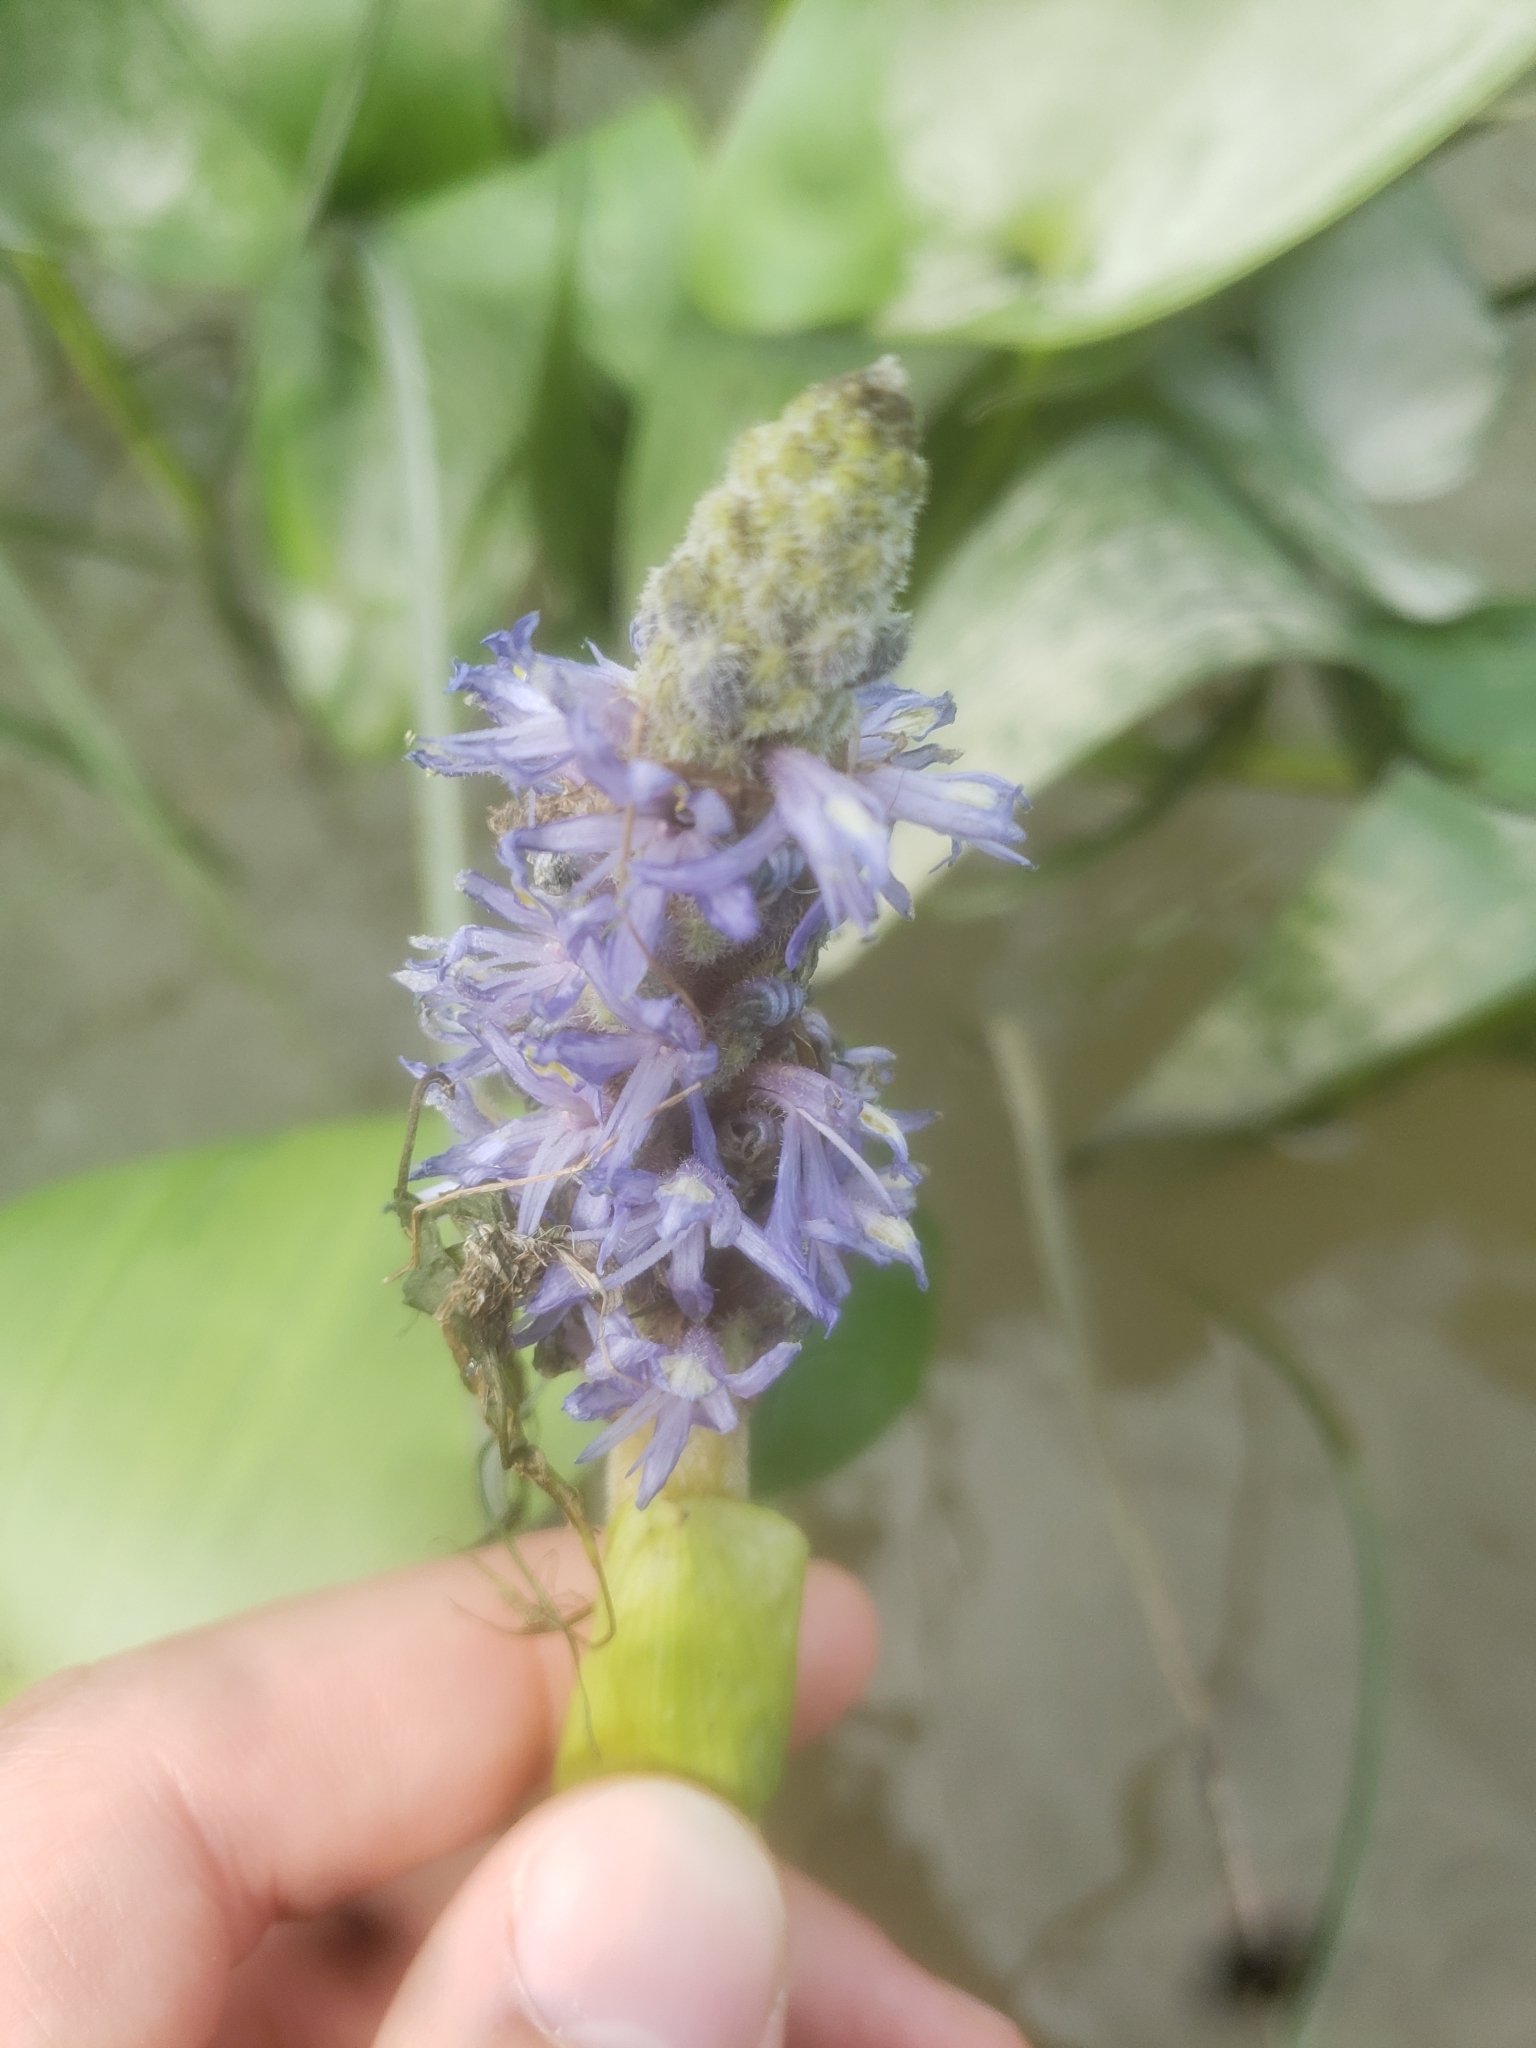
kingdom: Plantae
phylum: Tracheophyta
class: Liliopsida
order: Commelinales
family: Pontederiaceae
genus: Pontederia
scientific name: Pontederia cordata
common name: Pickerelweed
